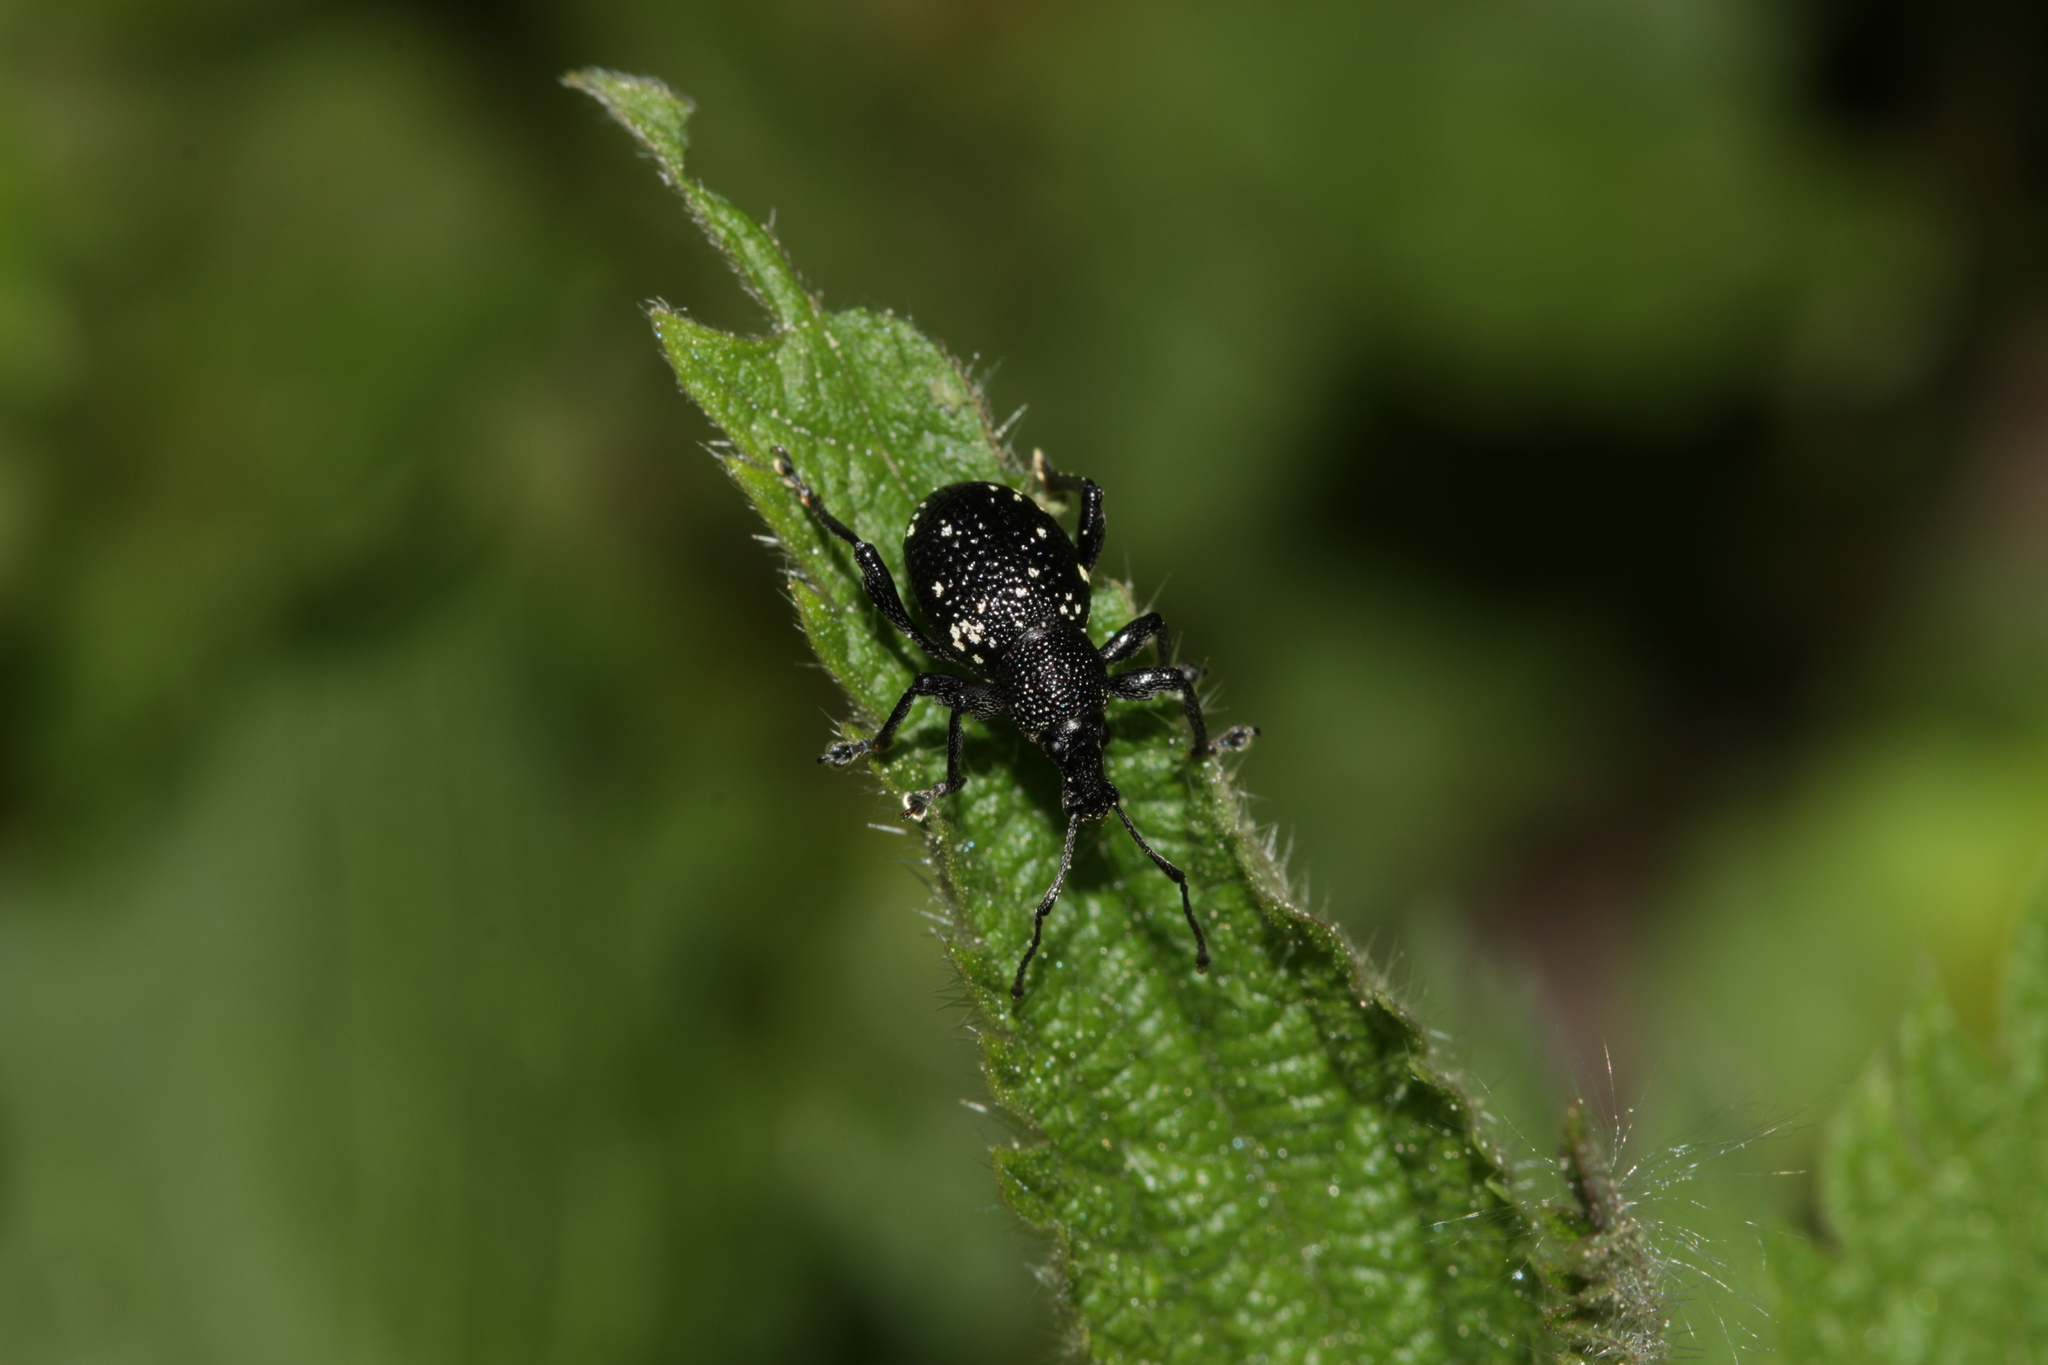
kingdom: Animalia
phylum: Arthropoda
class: Insecta
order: Coleoptera
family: Curculionidae
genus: Otiorhynchus
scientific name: Otiorhynchus gemmatus
